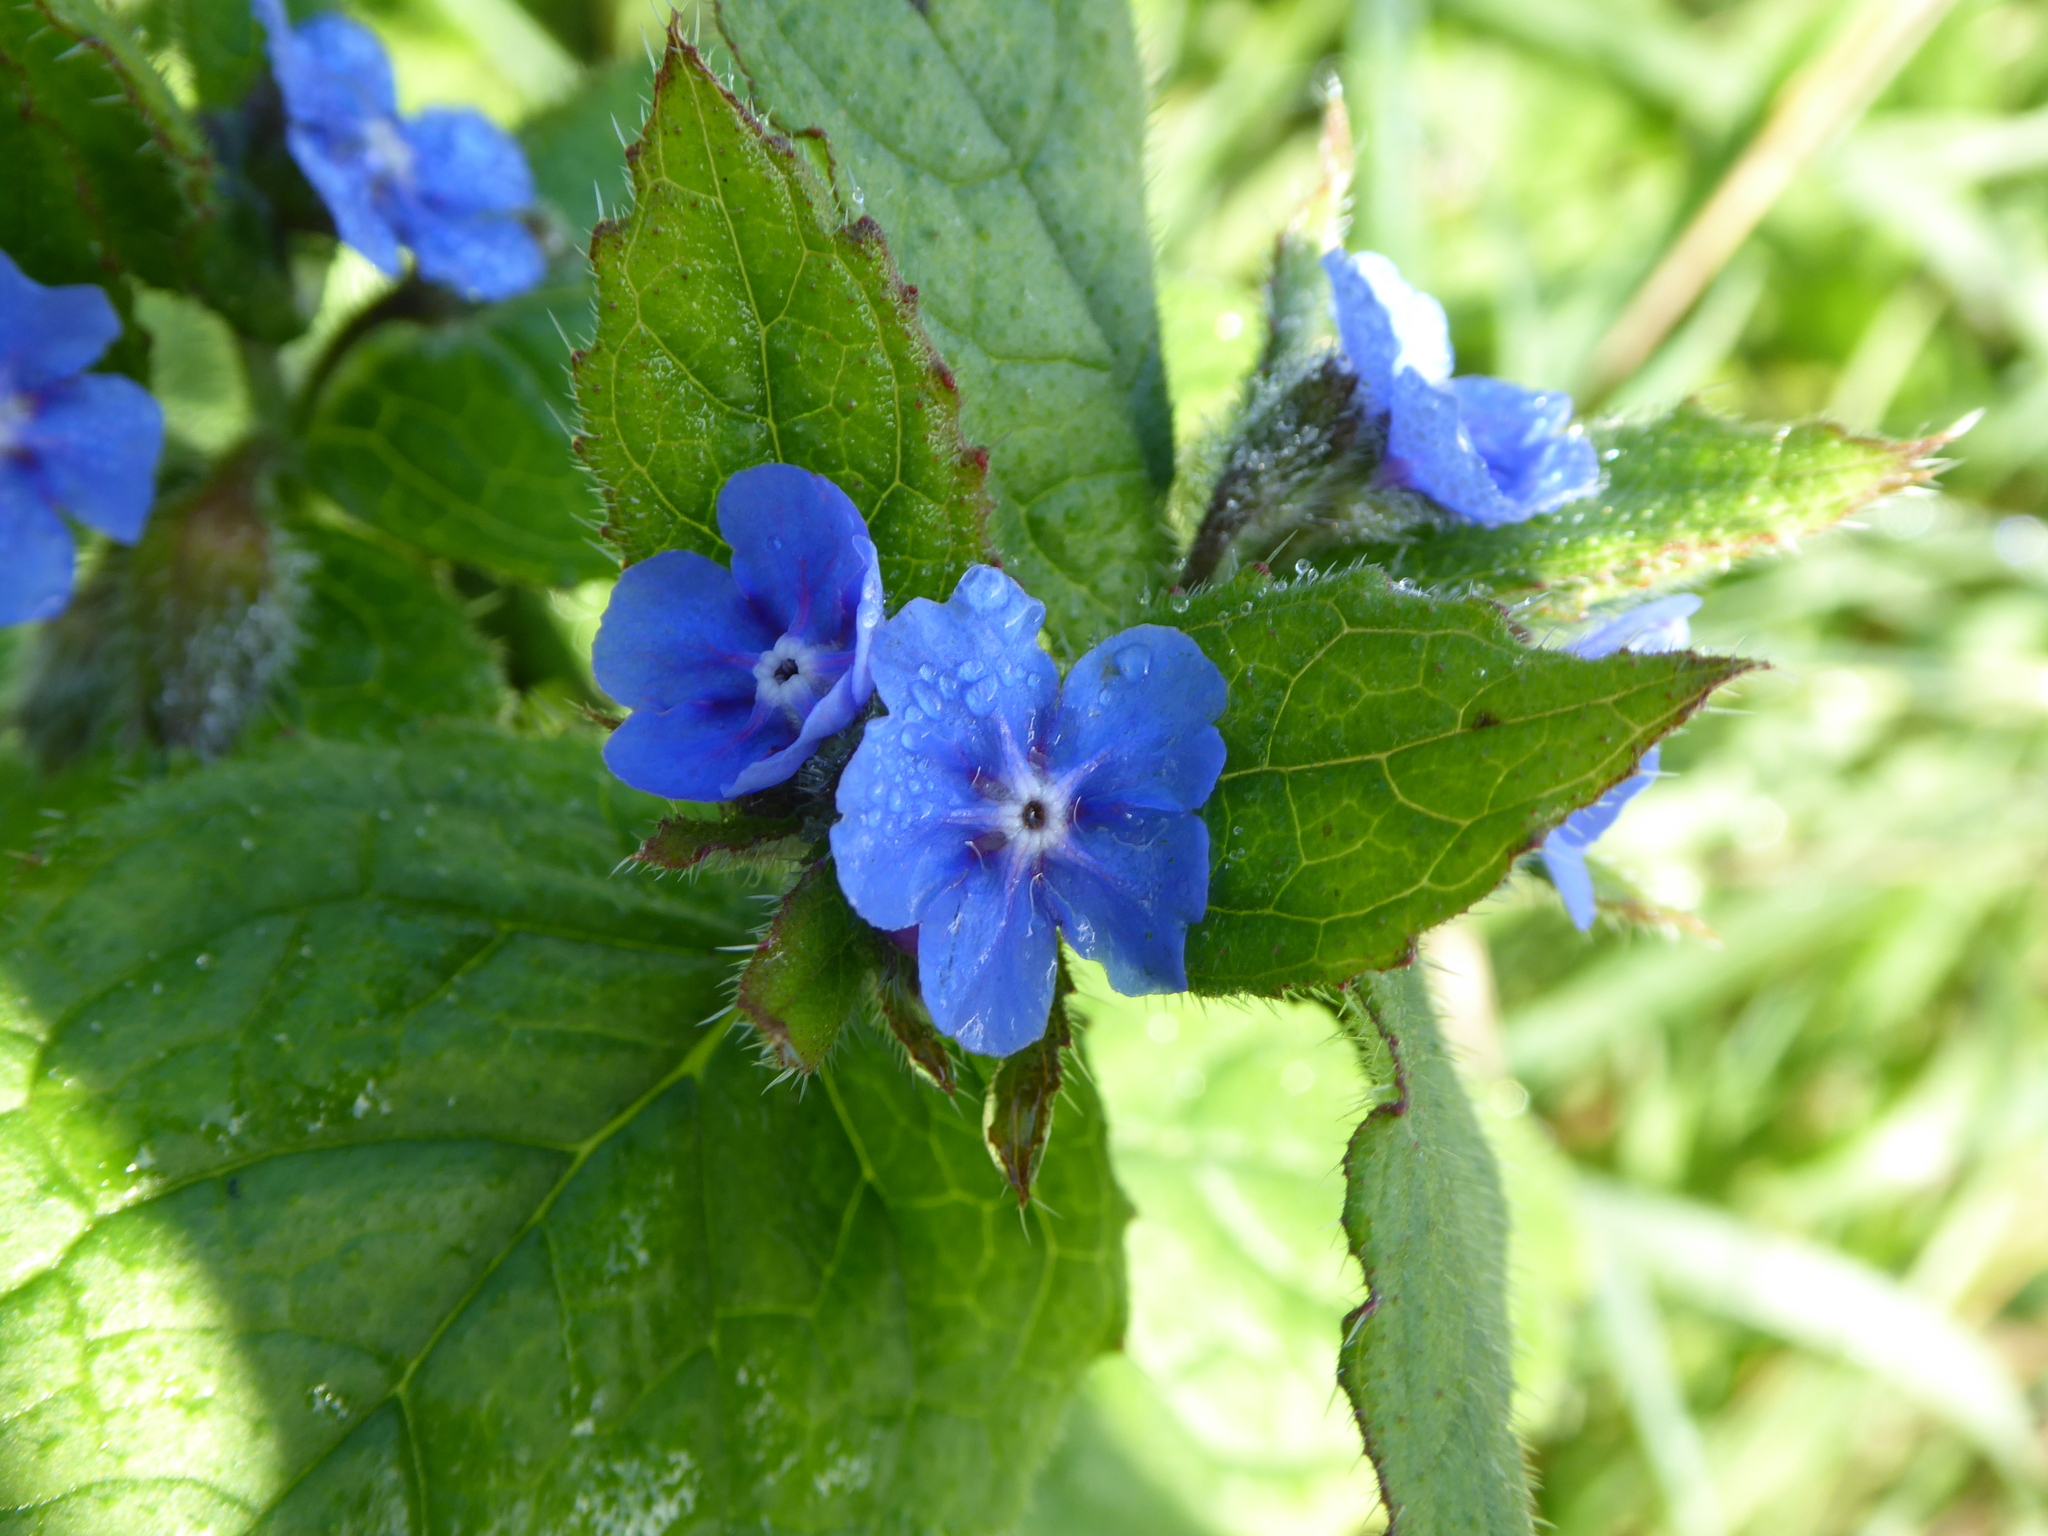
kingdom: Plantae
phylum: Tracheophyta
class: Magnoliopsida
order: Boraginales
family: Boraginaceae
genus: Pentaglottis
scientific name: Pentaglottis sempervirens
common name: Green alkanet
